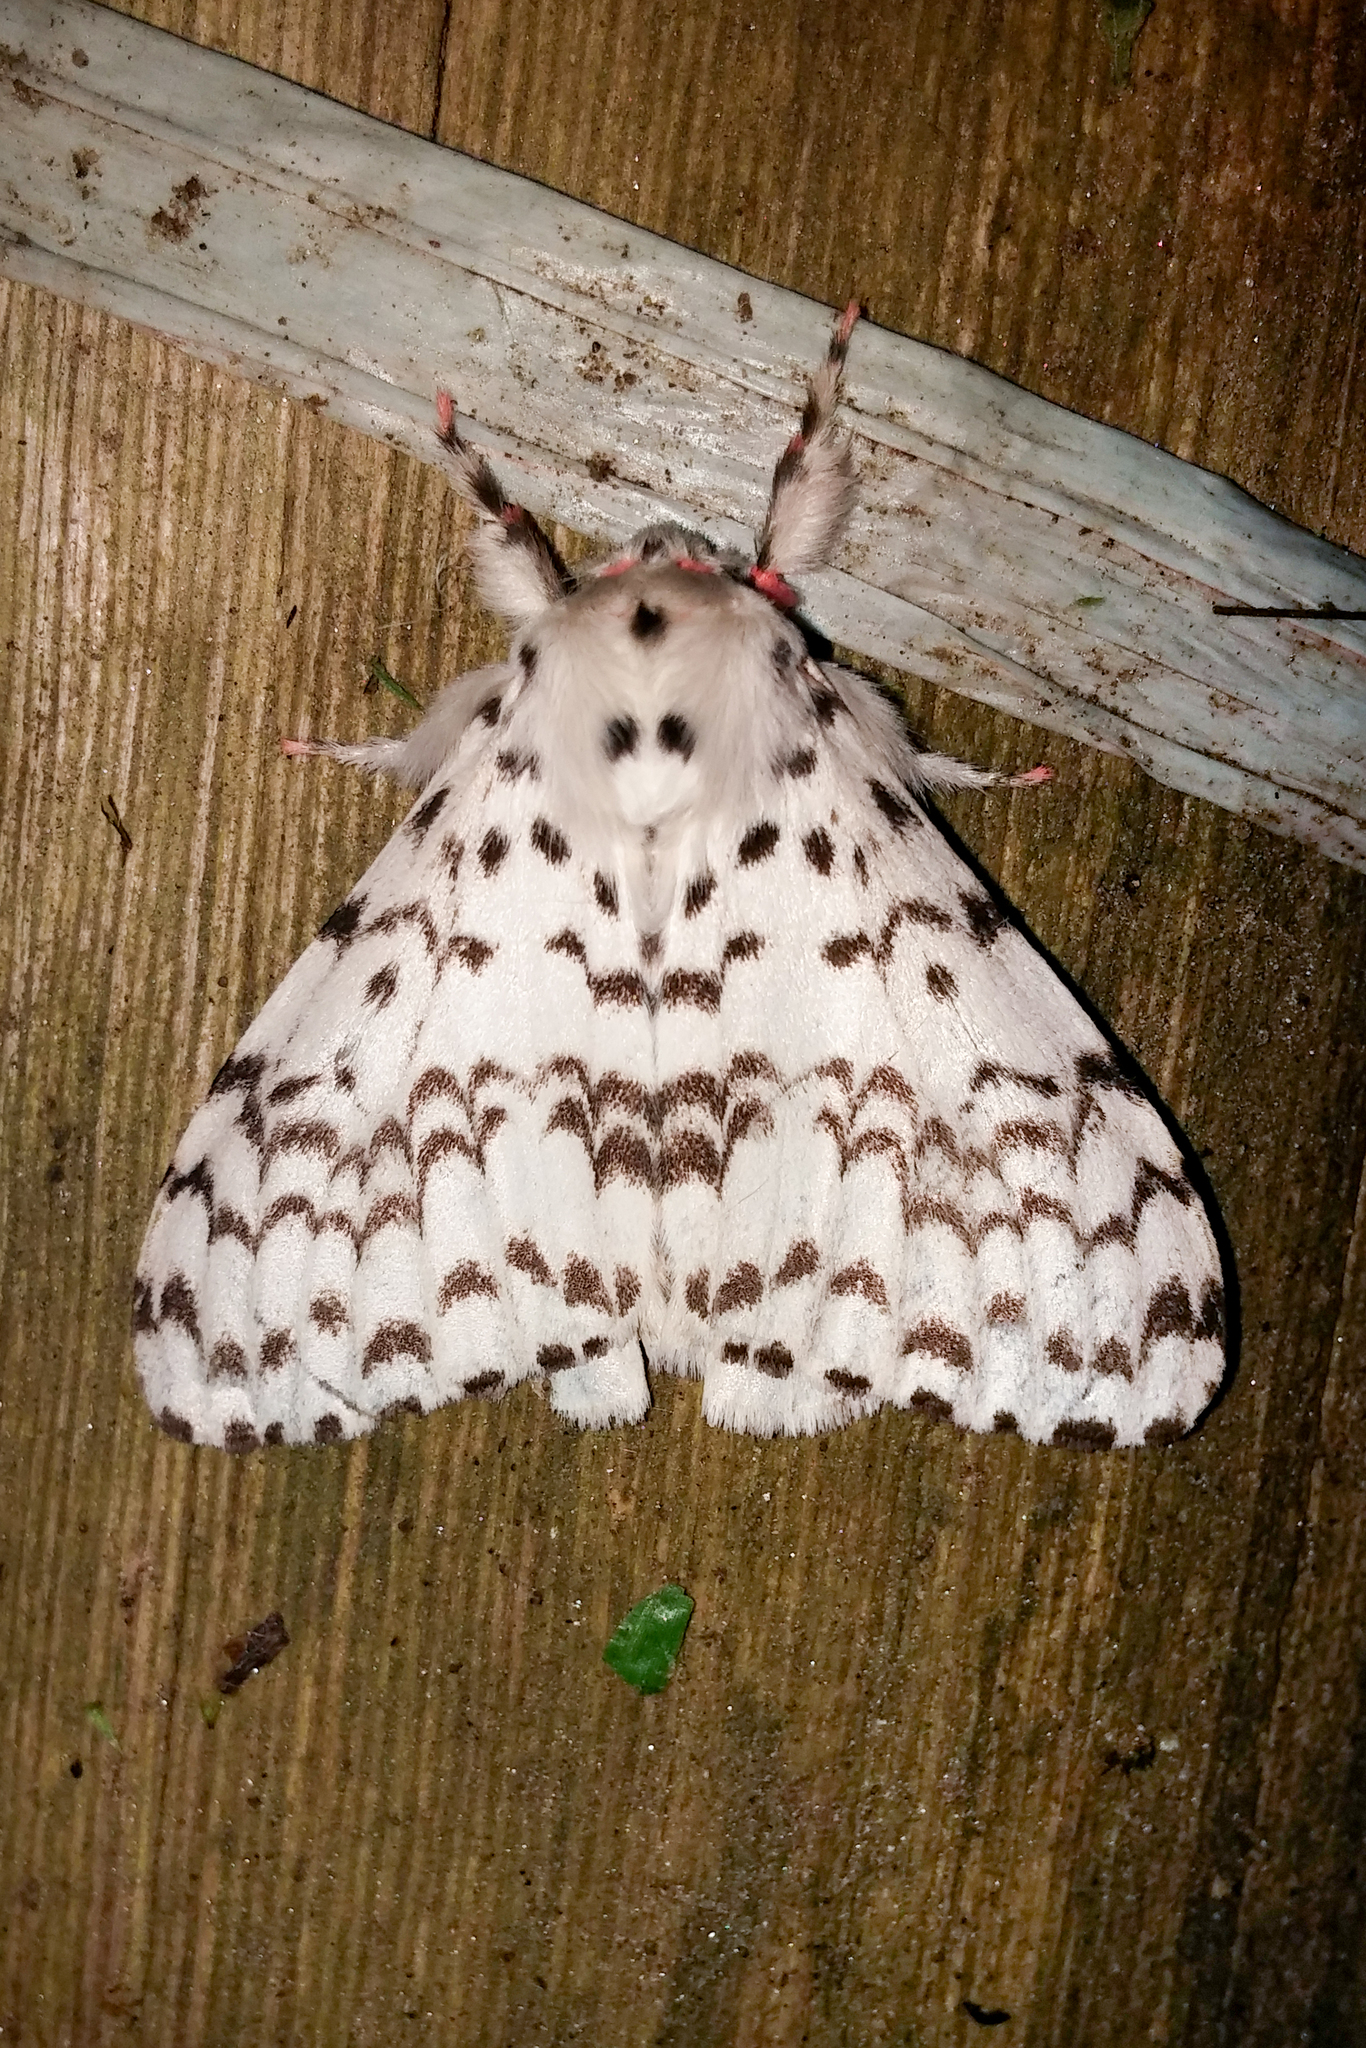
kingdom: Animalia
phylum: Arthropoda
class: Insecta
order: Lepidoptera
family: Erebidae
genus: Lymantria
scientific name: Lymantria novaguinensis
